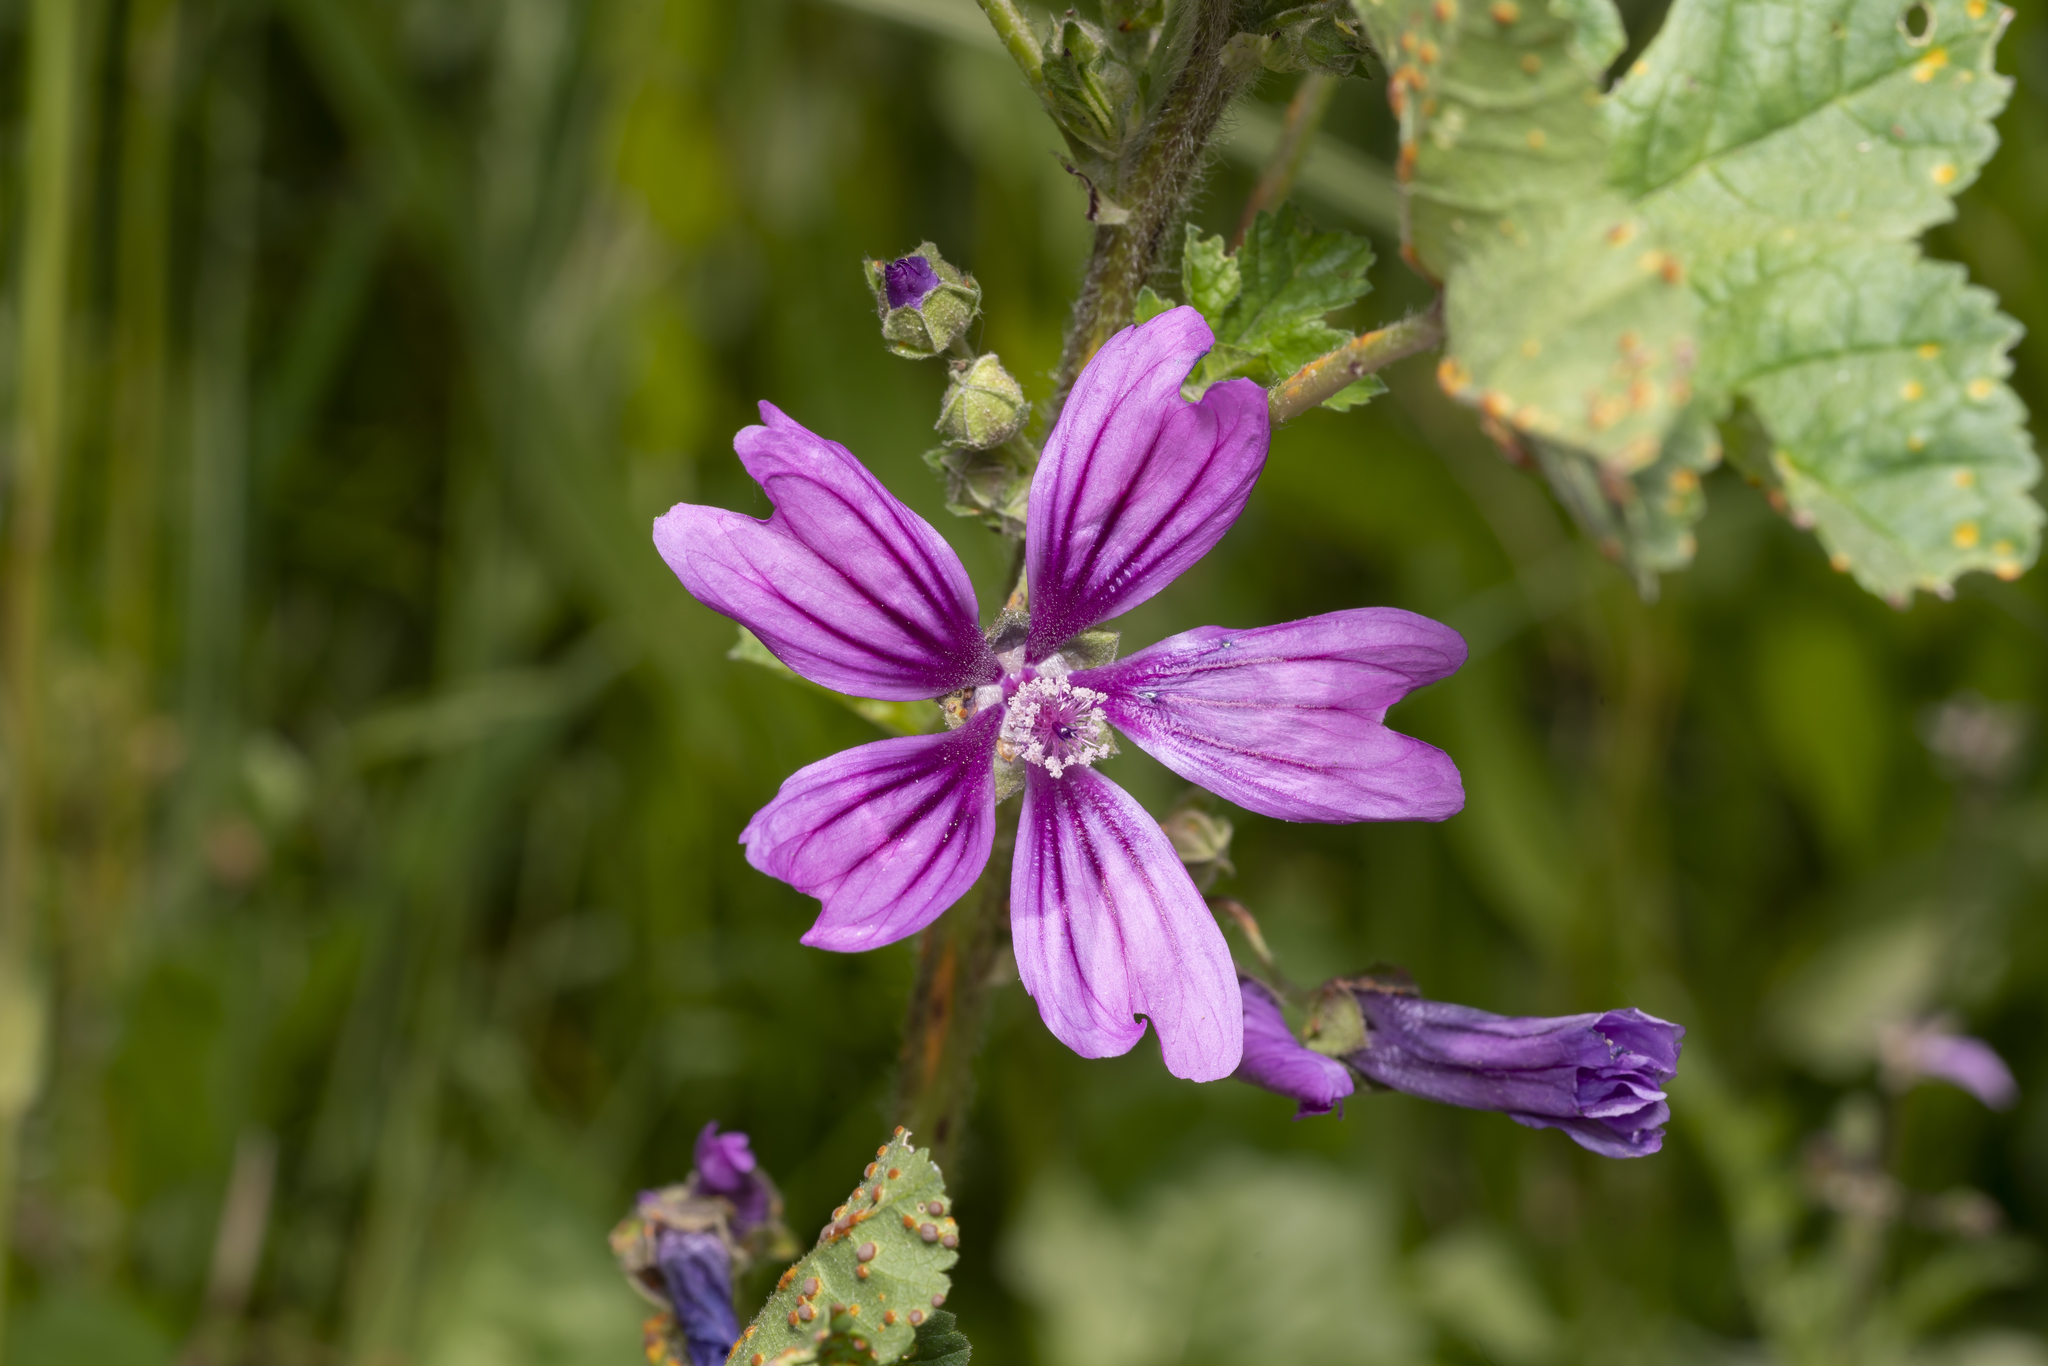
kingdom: Plantae
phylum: Tracheophyta
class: Magnoliopsida
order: Malvales
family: Malvaceae
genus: Malva
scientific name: Malva sylvestris
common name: Common mallow
